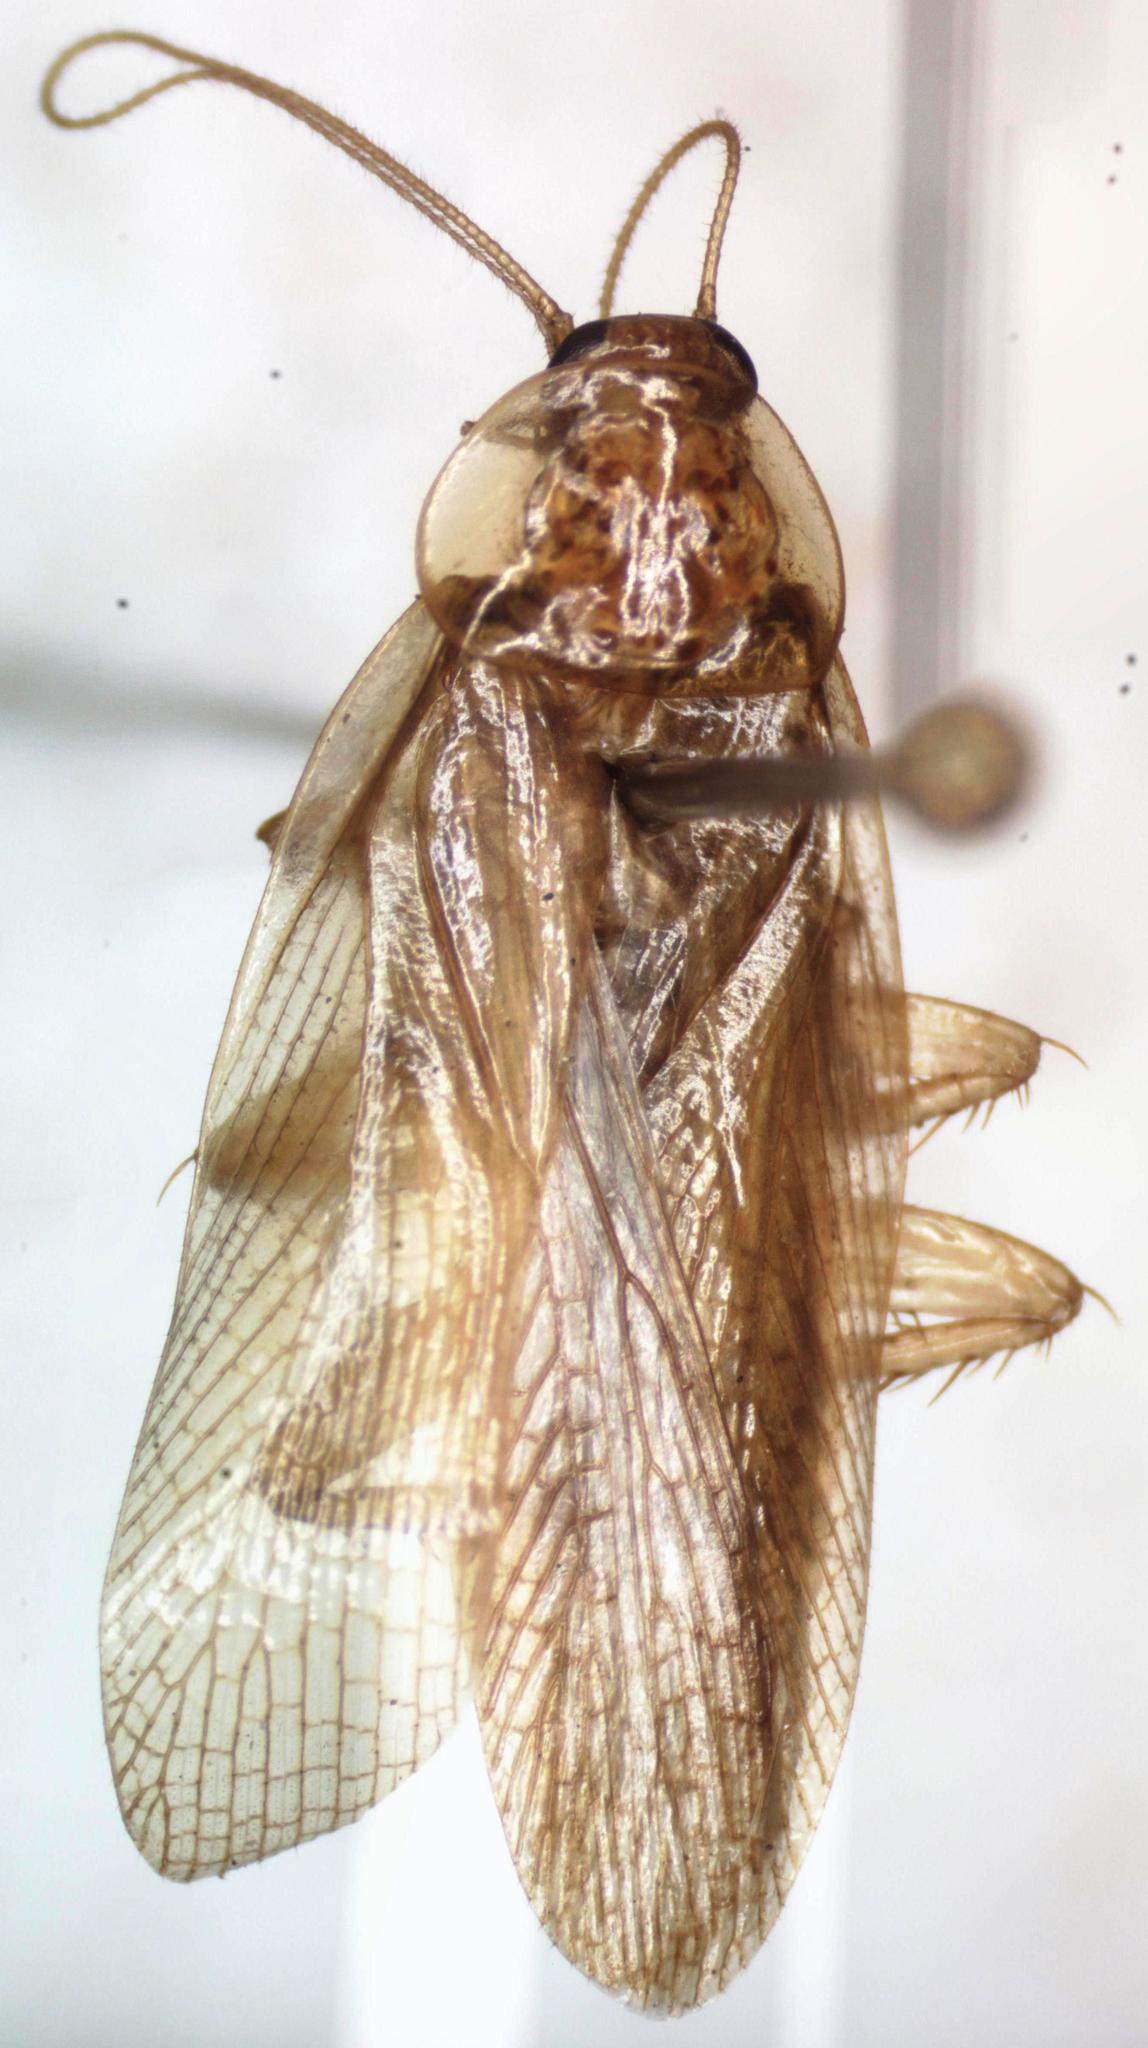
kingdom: Animalia
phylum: Arthropoda
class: Insecta
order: Blattodea
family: Ectobiidae
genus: Imblattella
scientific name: Imblattella chagrensis
